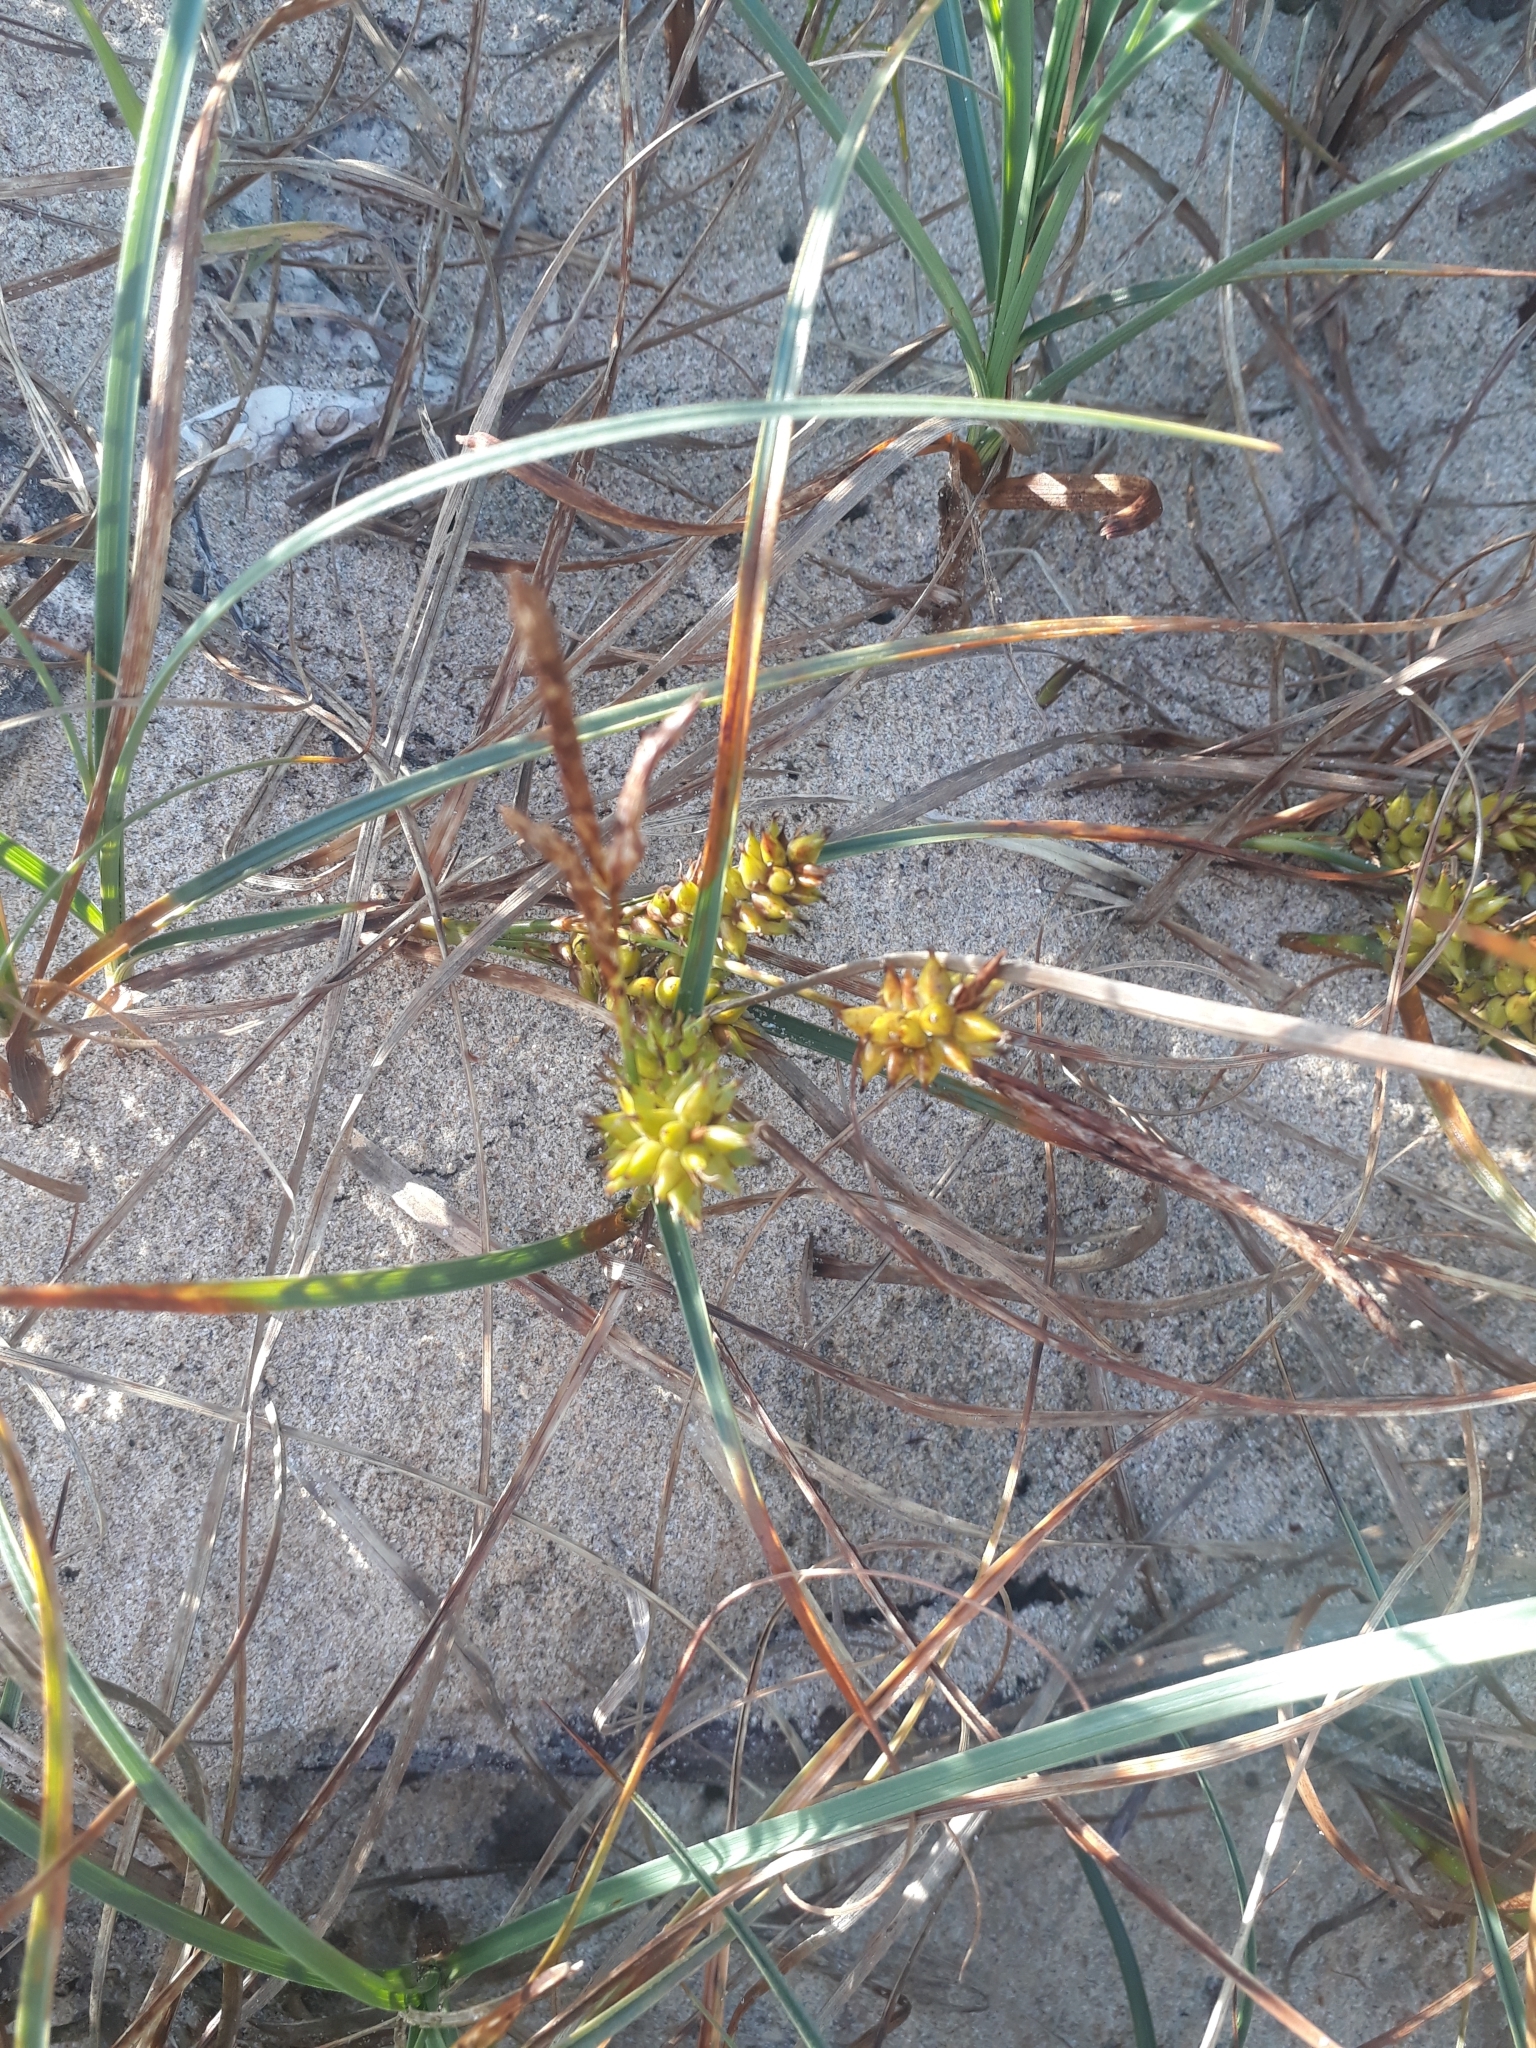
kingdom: Plantae
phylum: Tracheophyta
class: Liliopsida
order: Poales
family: Cyperaceae
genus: Carex
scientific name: Carex pumila
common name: Dwarf sedge
